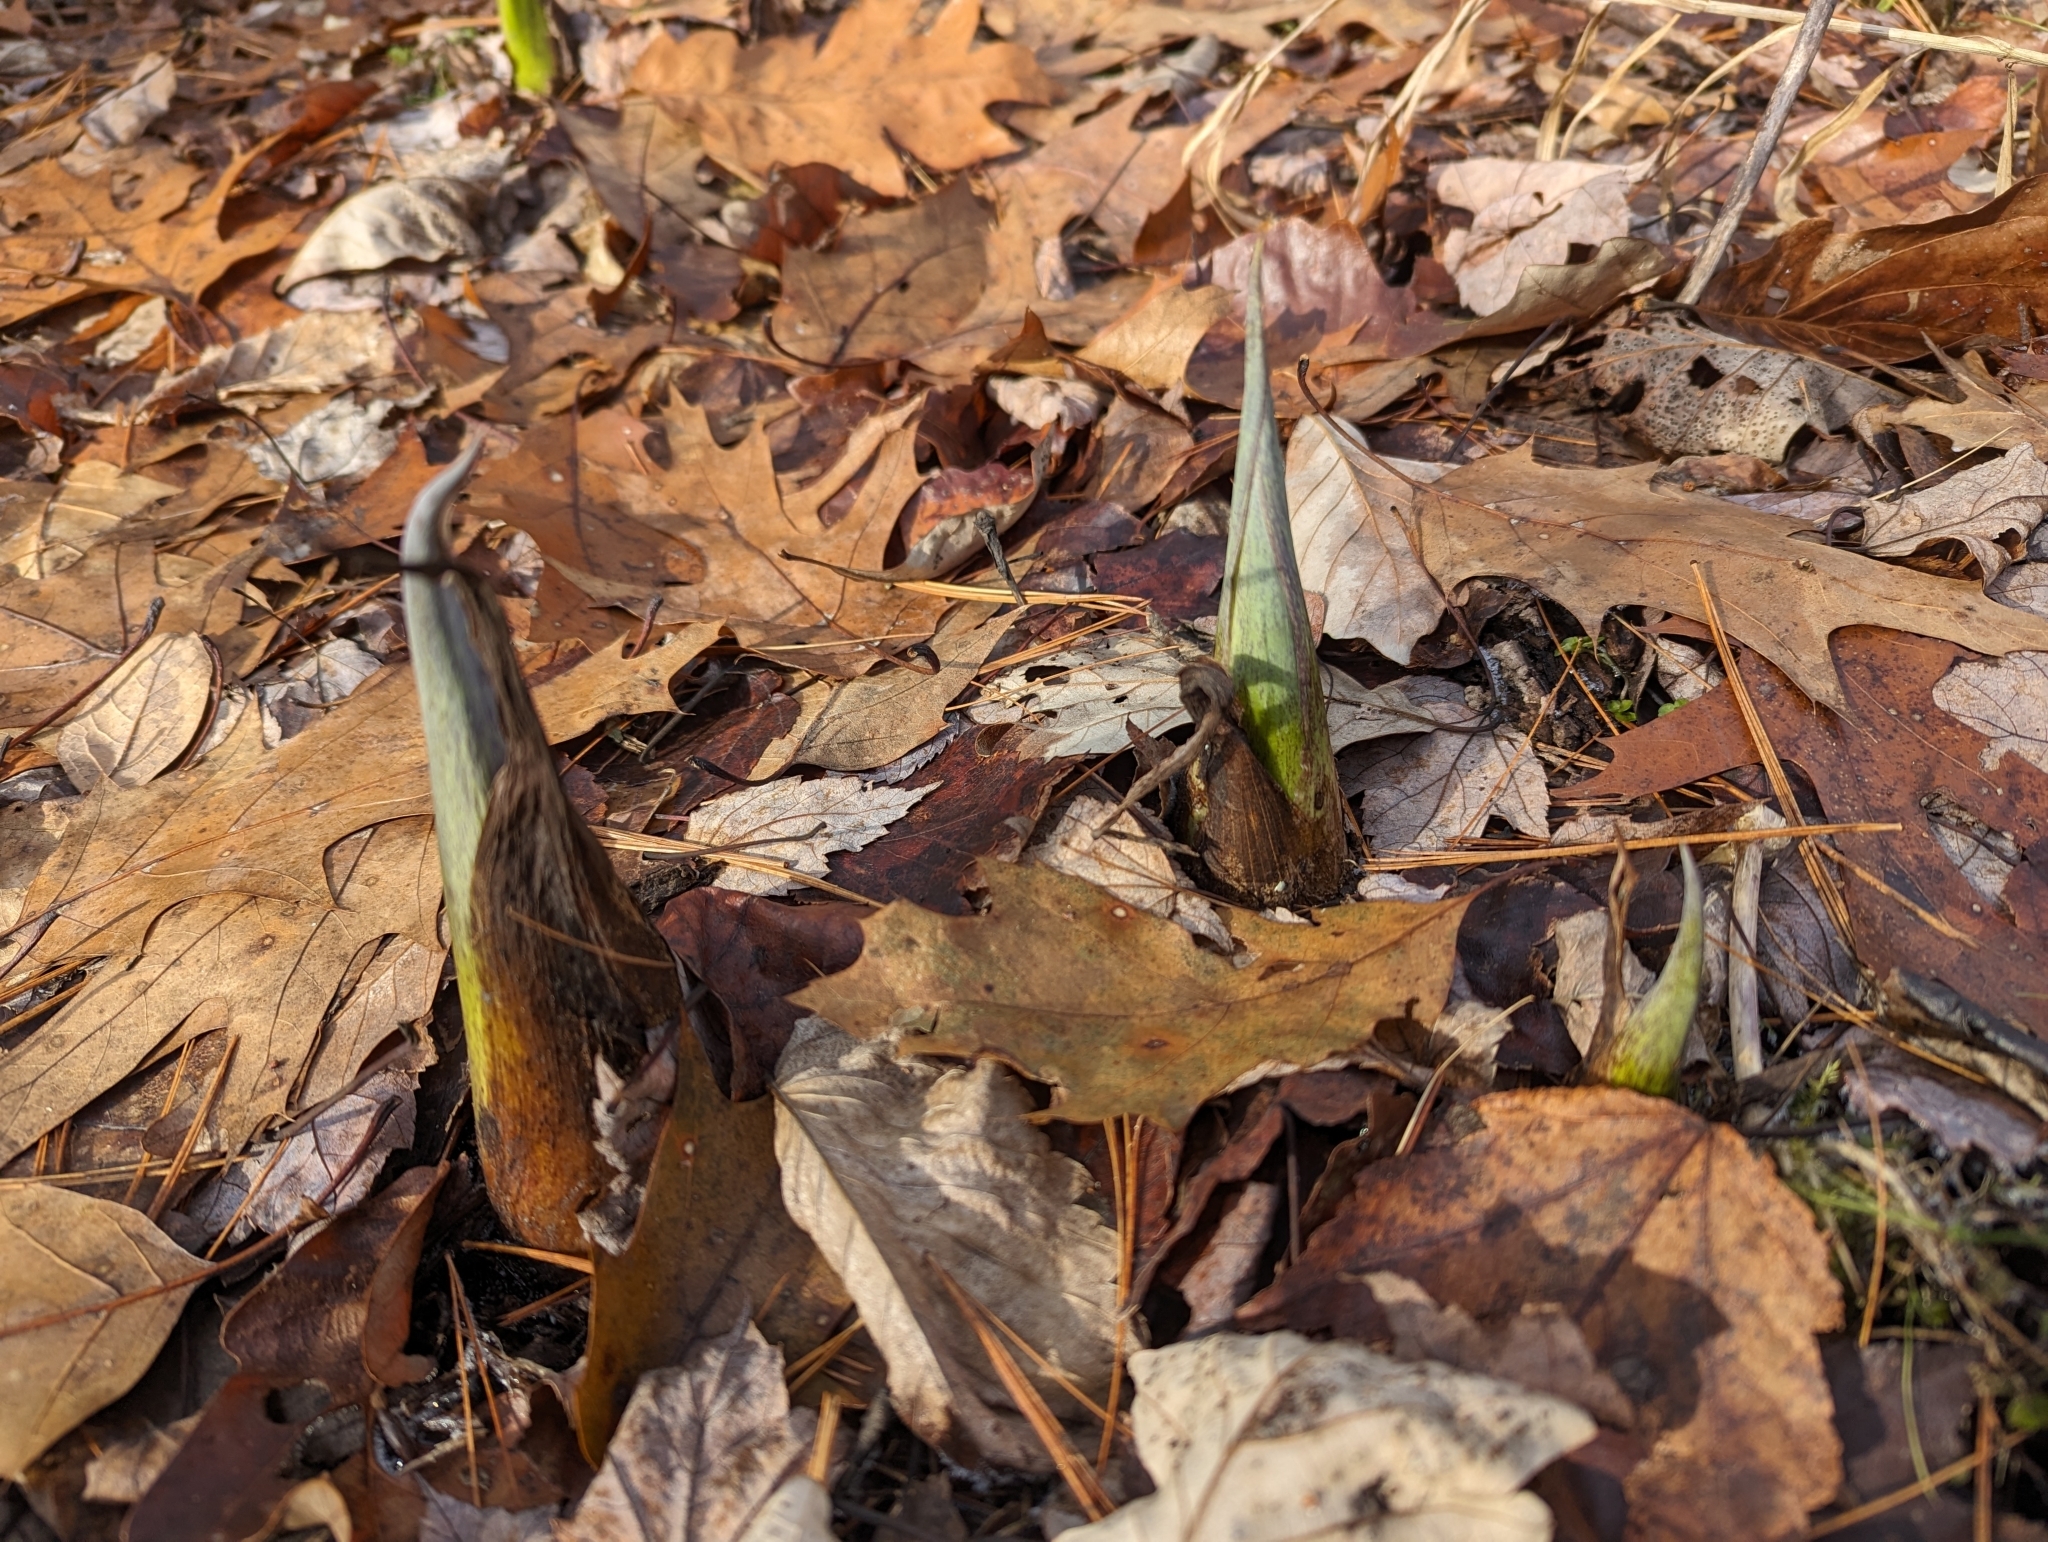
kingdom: Plantae
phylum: Tracheophyta
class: Liliopsida
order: Alismatales
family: Araceae
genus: Symplocarpus
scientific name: Symplocarpus foetidus
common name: Eastern skunk cabbage
